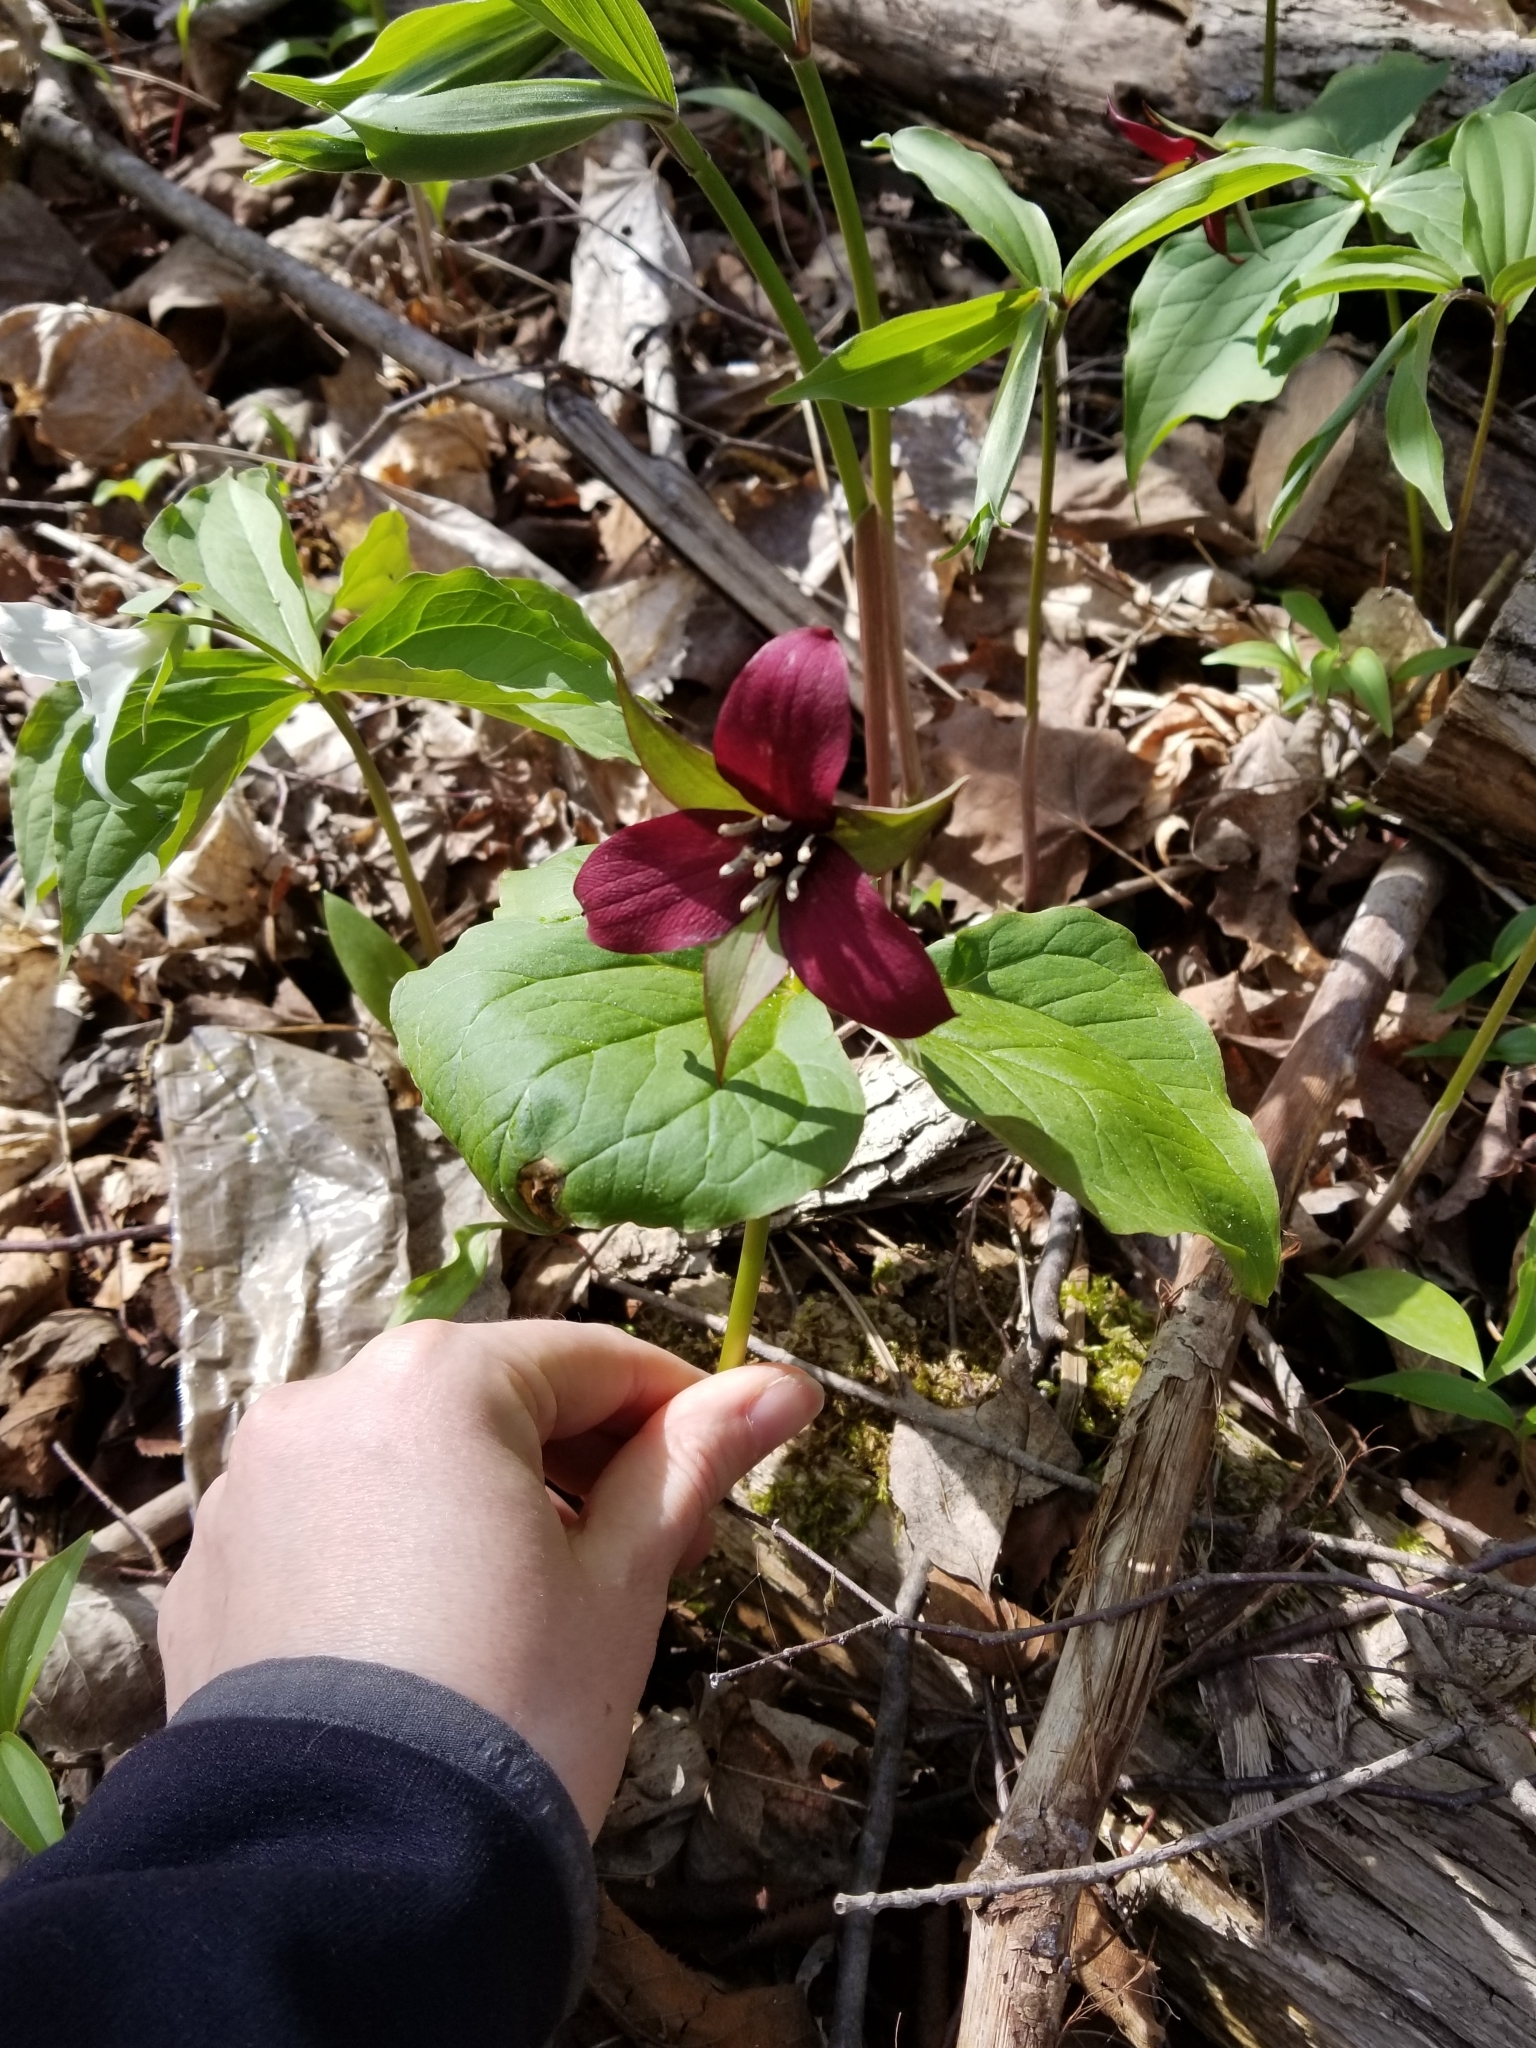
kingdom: Plantae
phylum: Tracheophyta
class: Liliopsida
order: Liliales
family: Melanthiaceae
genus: Trillium
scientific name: Trillium erectum
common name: Purple trillium
